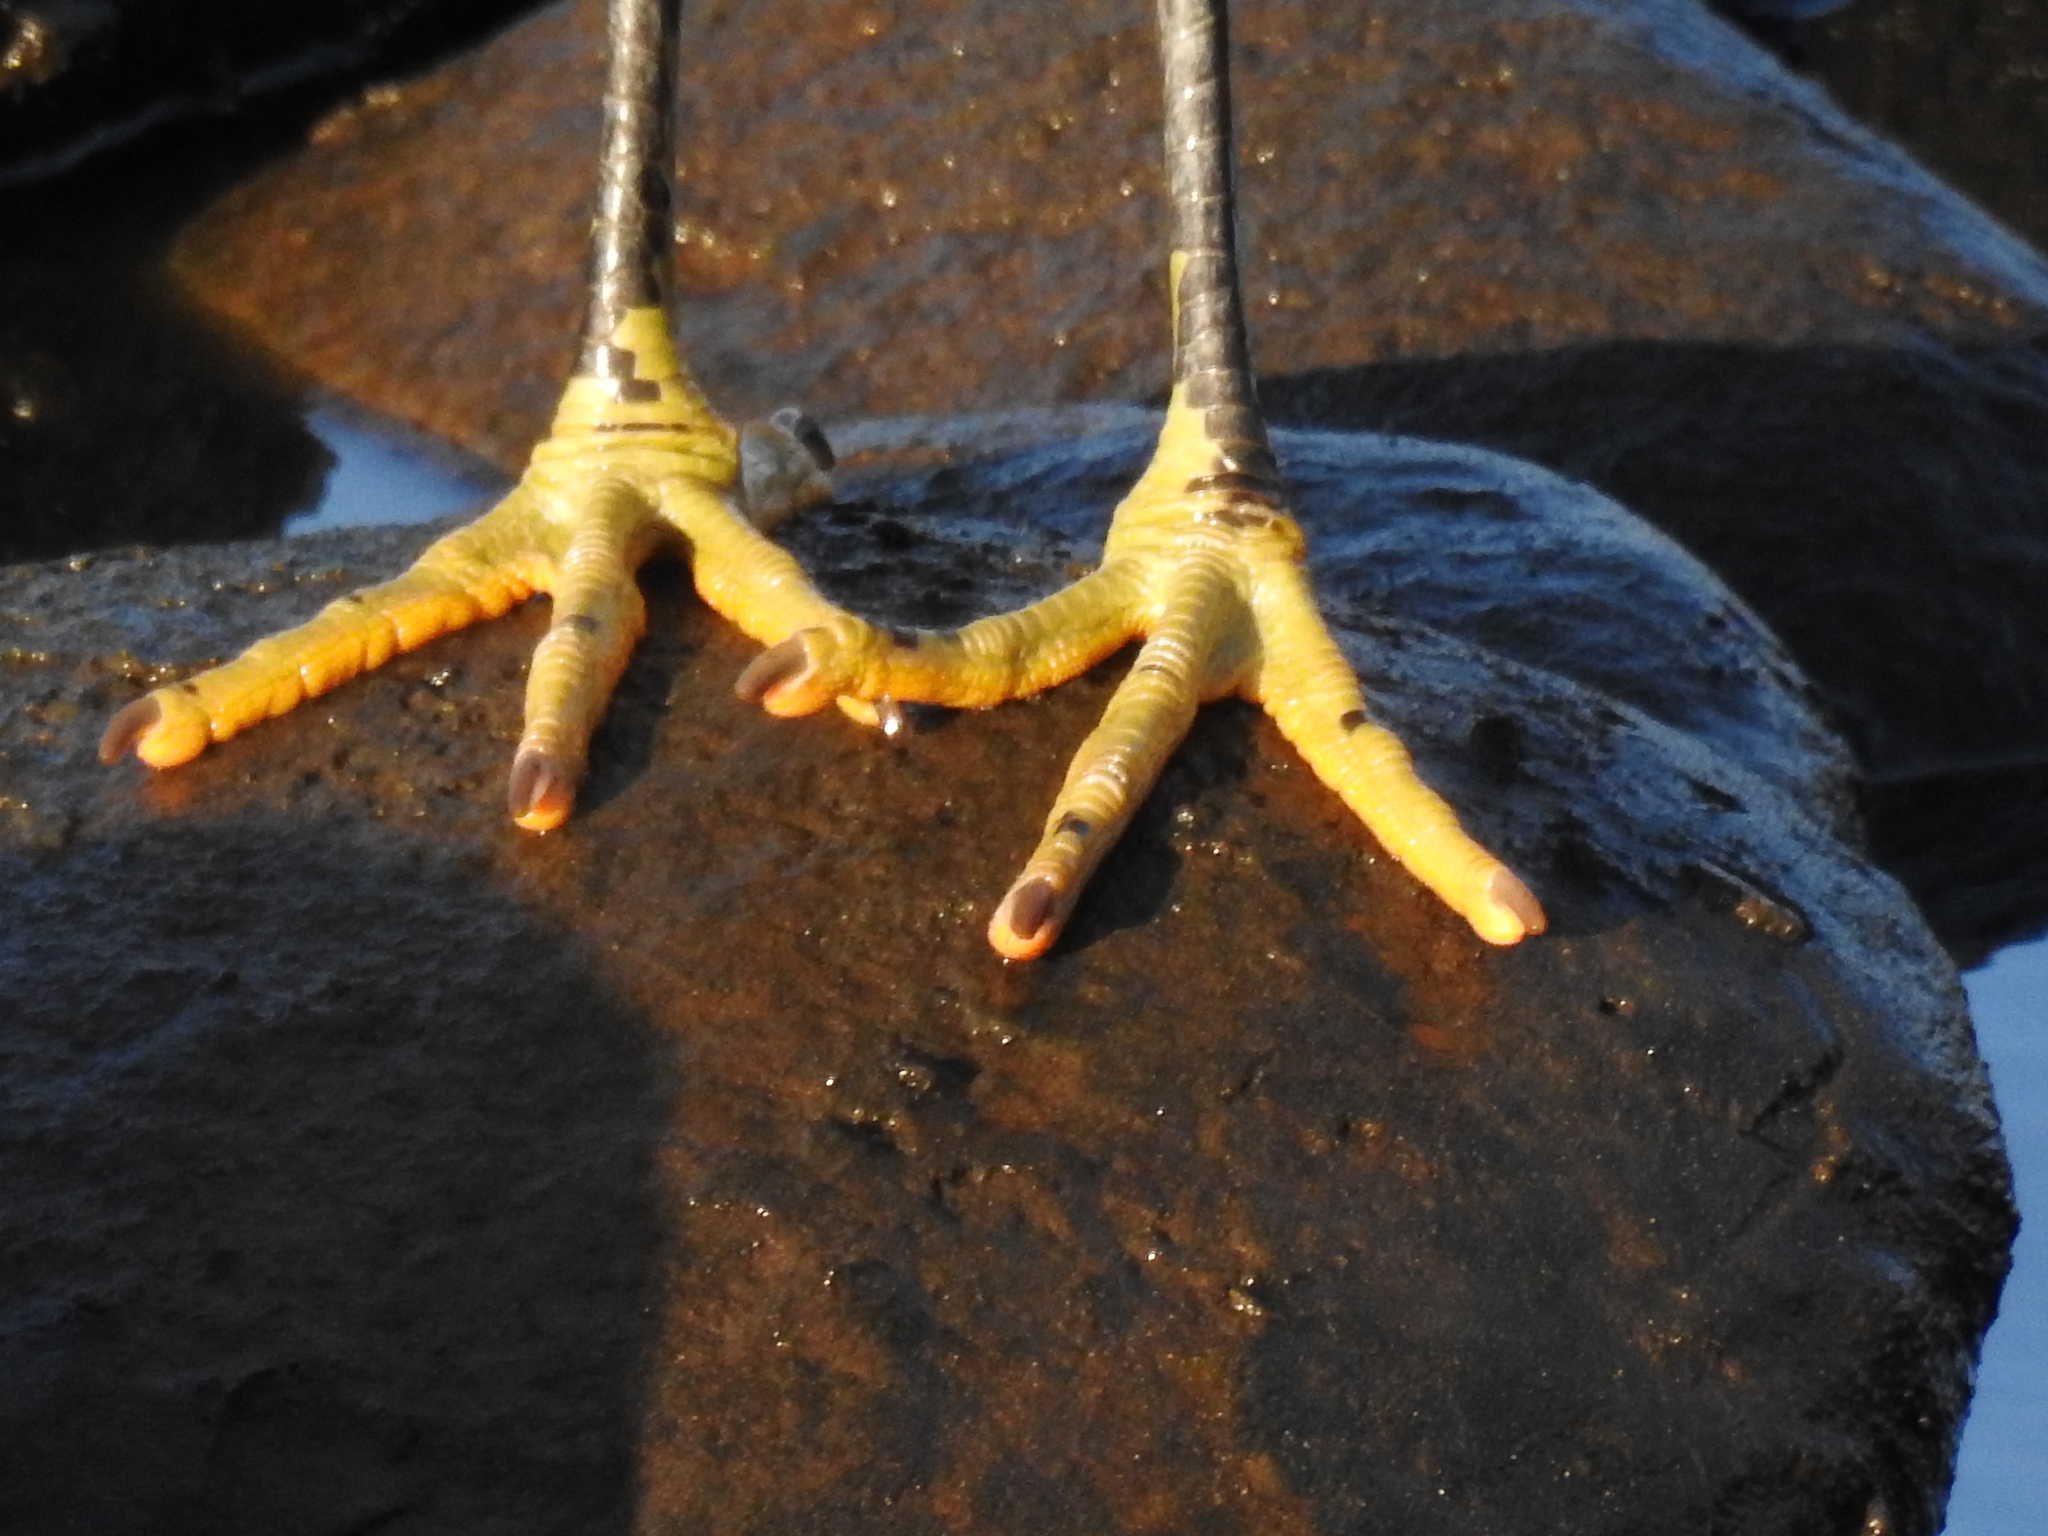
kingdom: Animalia
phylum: Chordata
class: Aves
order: Pelecaniformes
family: Ardeidae
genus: Egretta
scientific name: Egretta sacra
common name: Pacific reef heron
